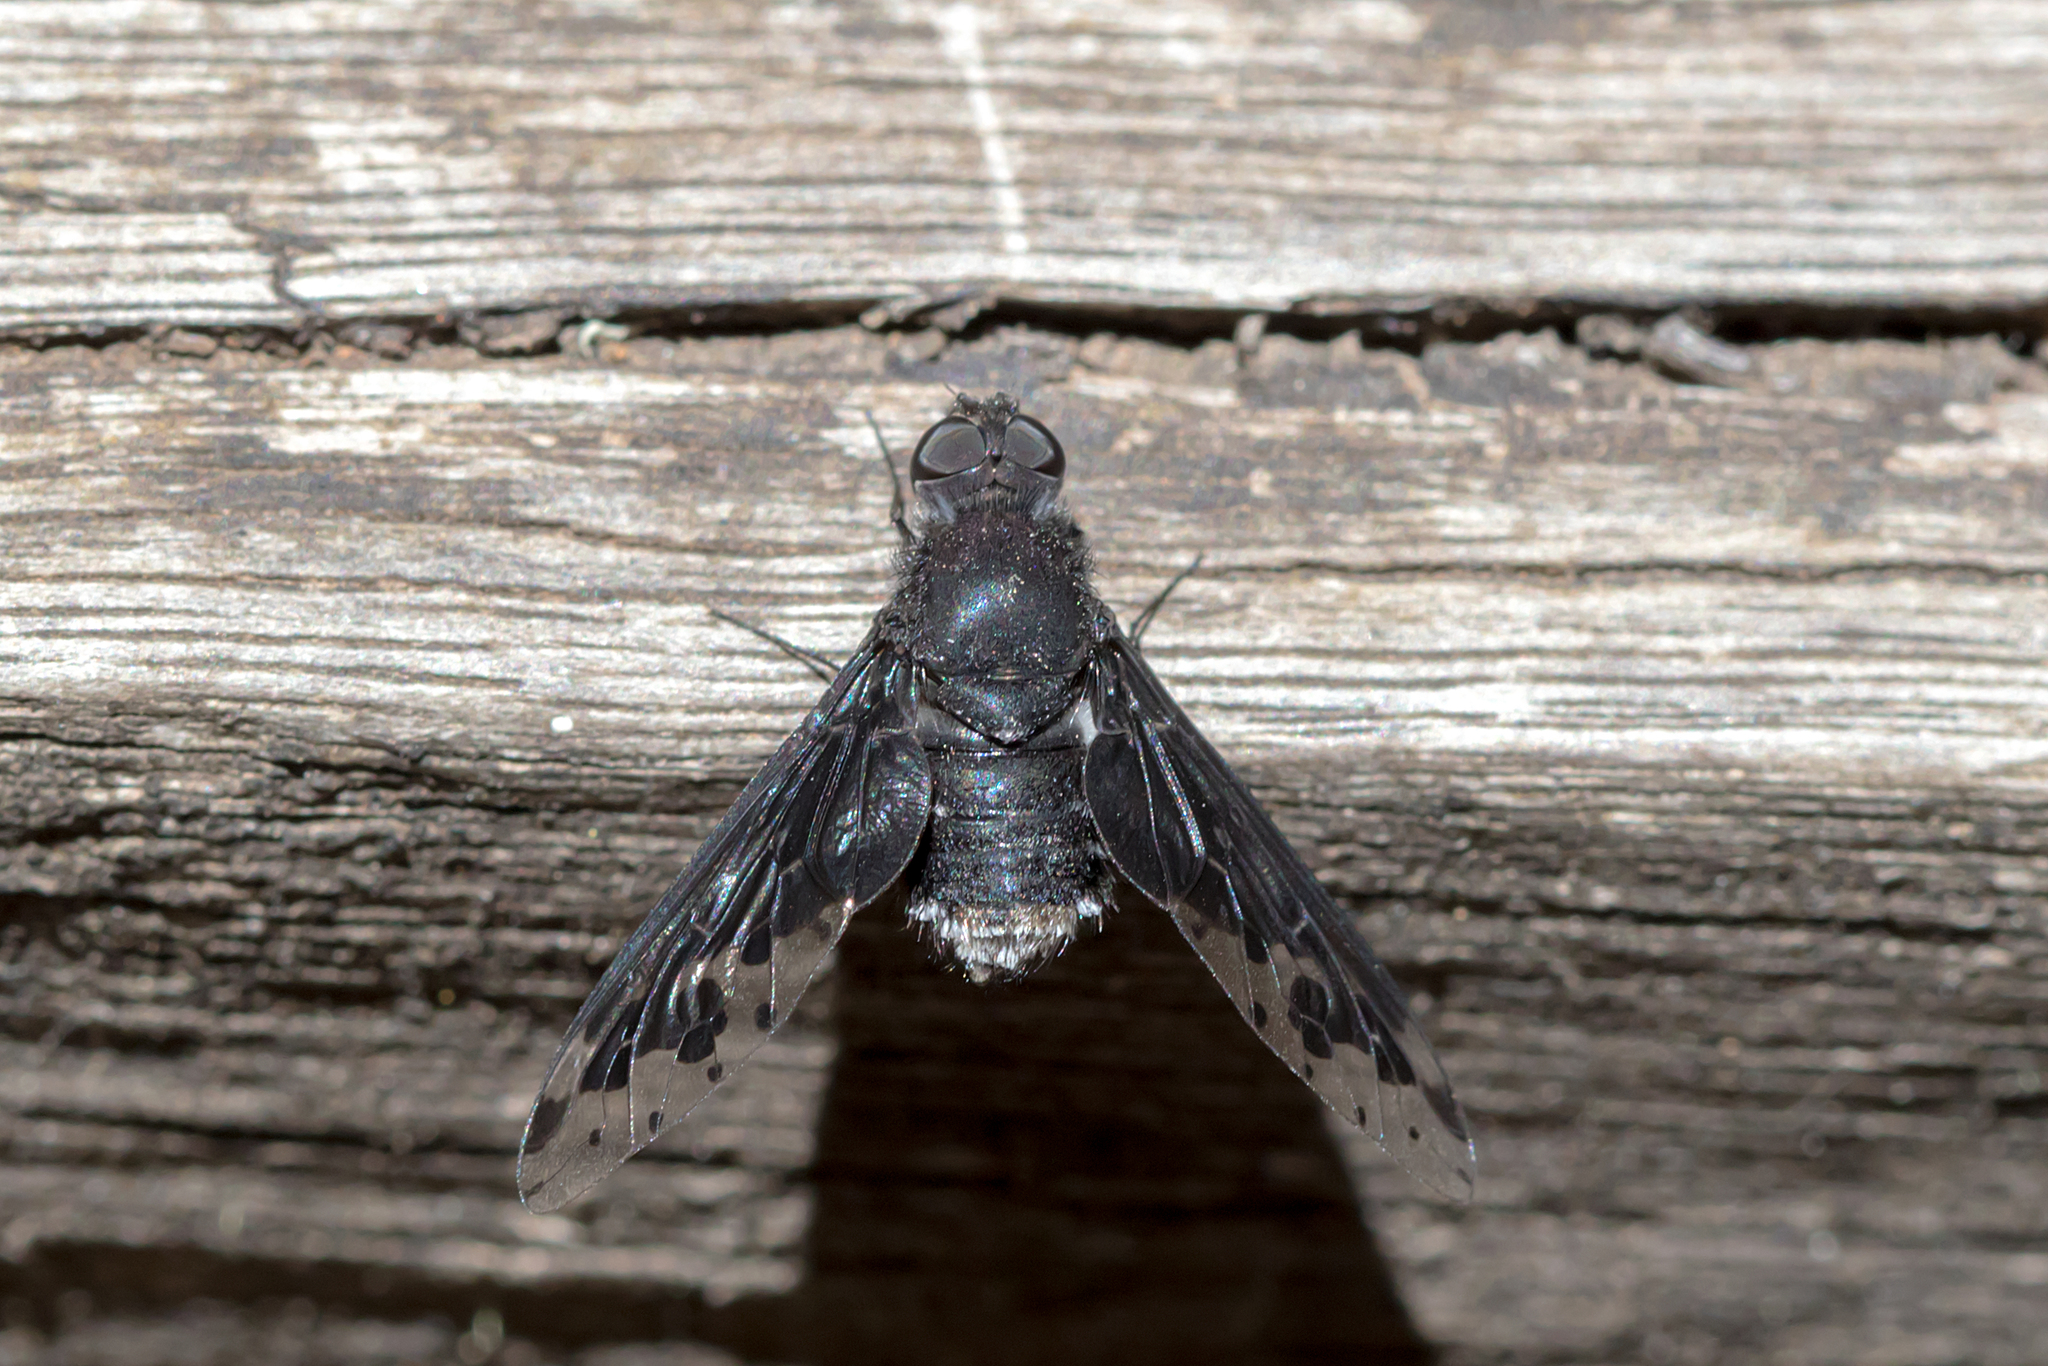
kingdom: Animalia
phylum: Arthropoda
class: Insecta
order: Diptera
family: Bombyliidae
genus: Anthrax
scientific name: Anthrax maculata
